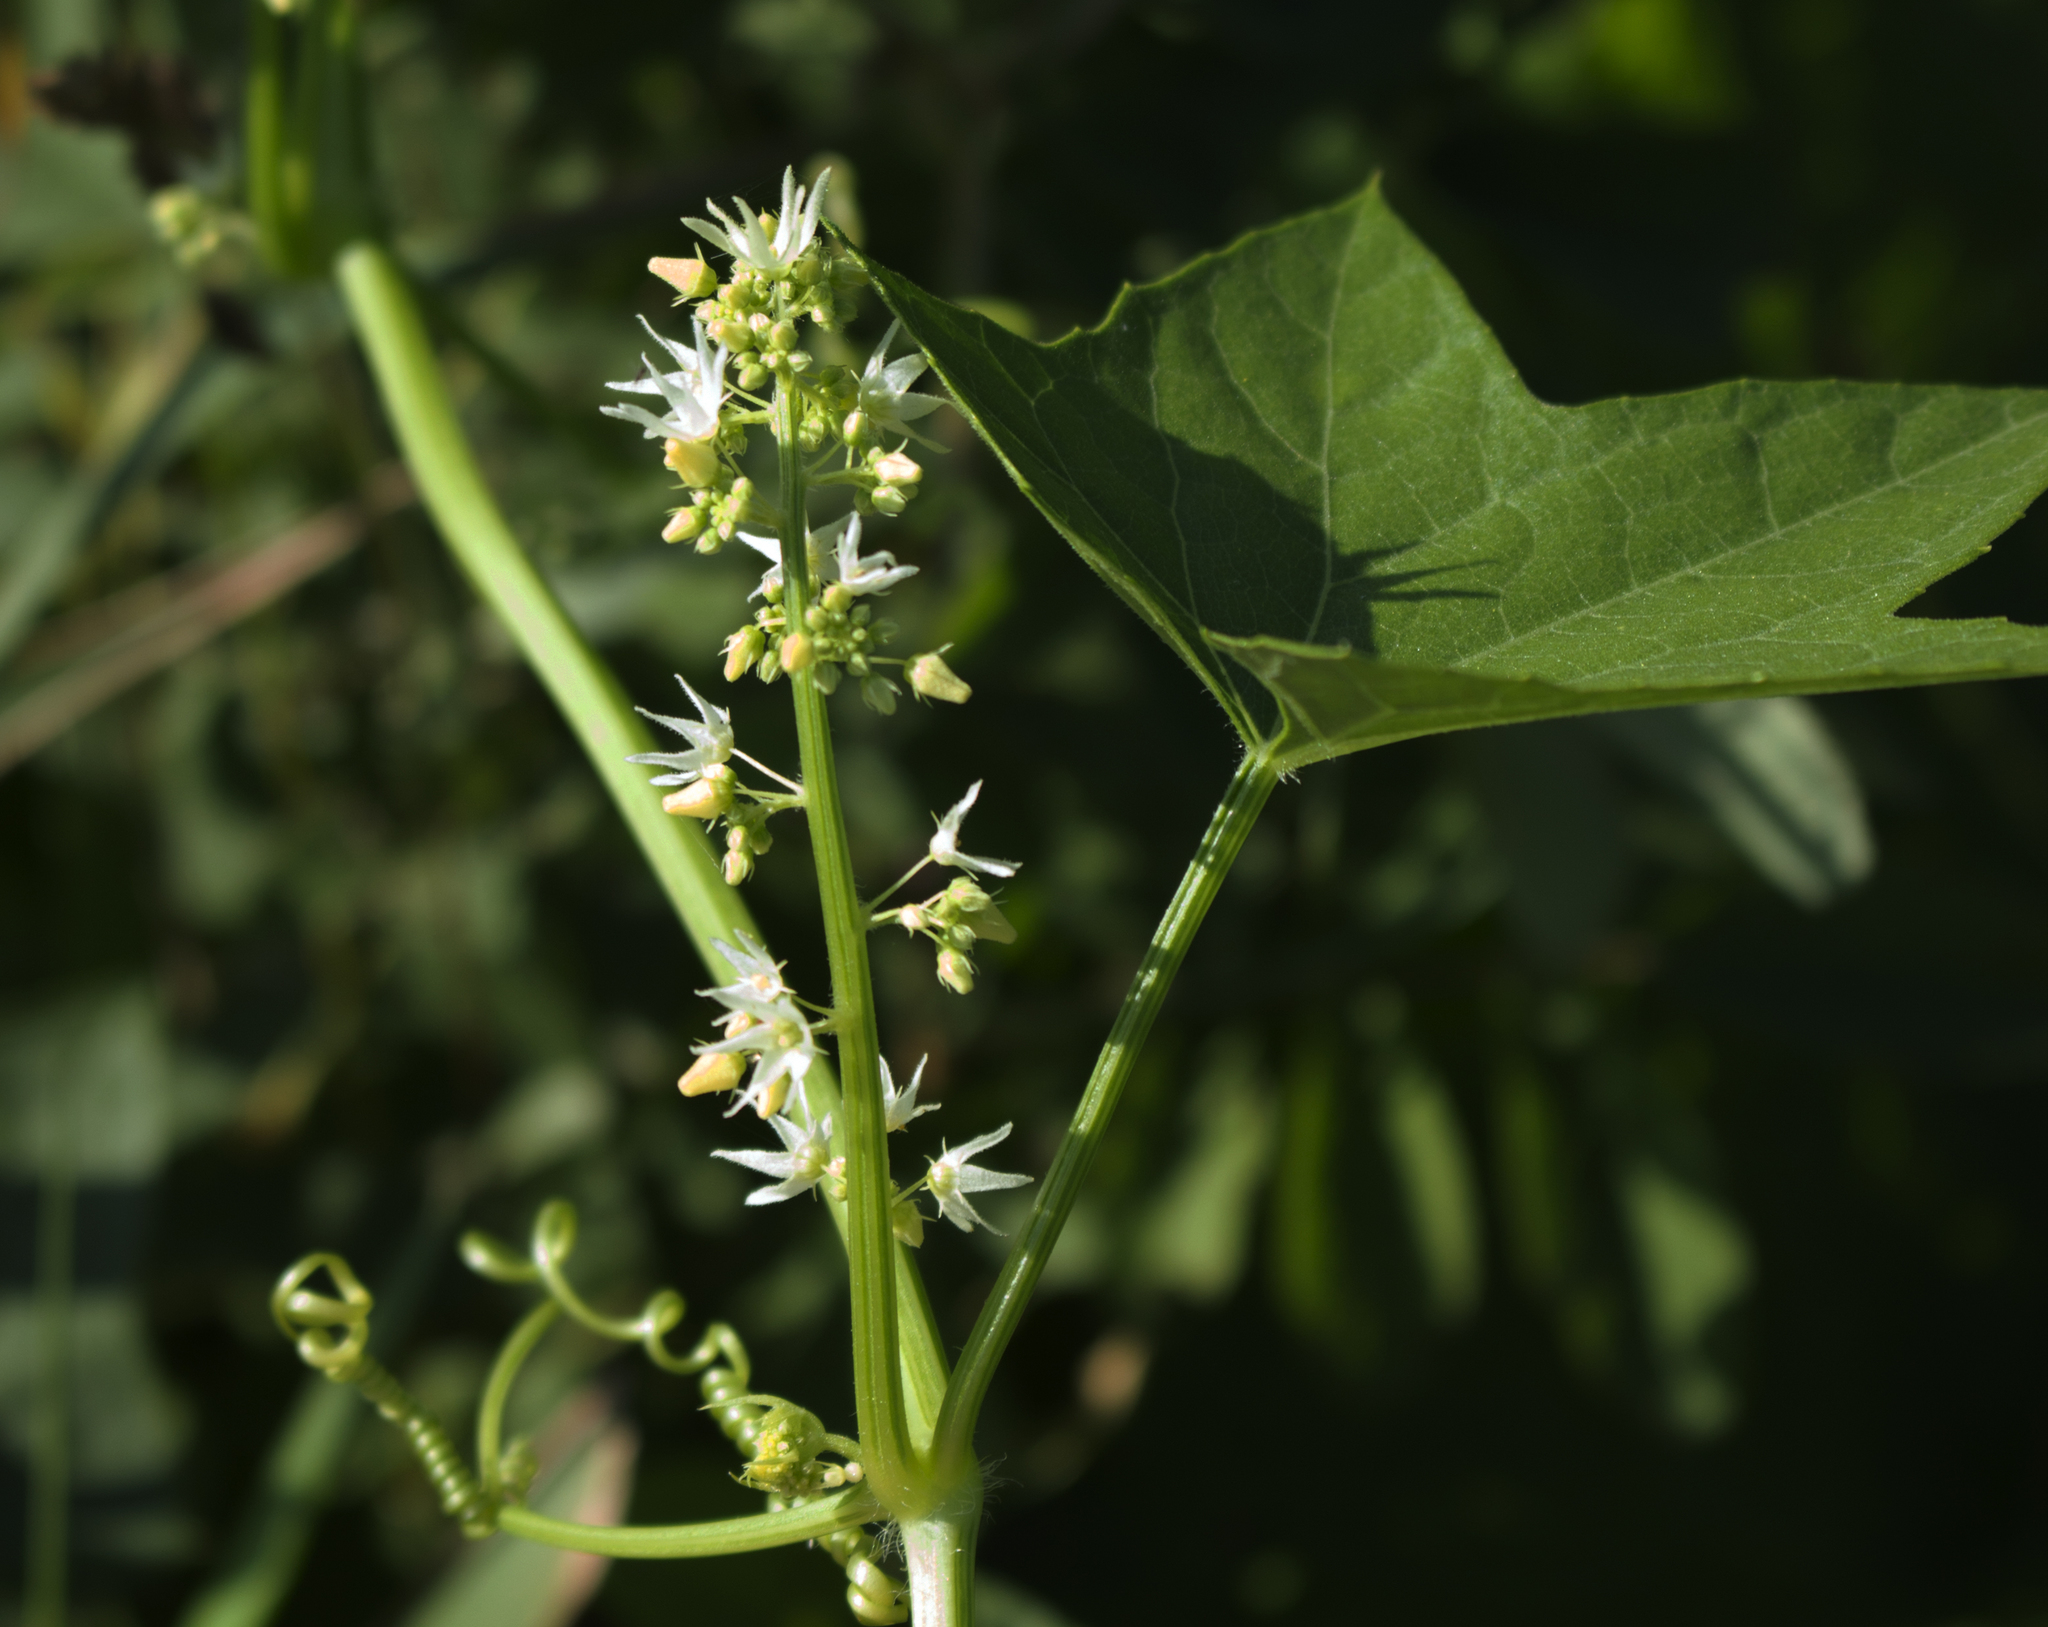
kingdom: Plantae
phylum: Tracheophyta
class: Magnoliopsida
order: Cucurbitales
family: Cucurbitaceae
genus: Echinocystis
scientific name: Echinocystis lobata
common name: Wild cucumber
